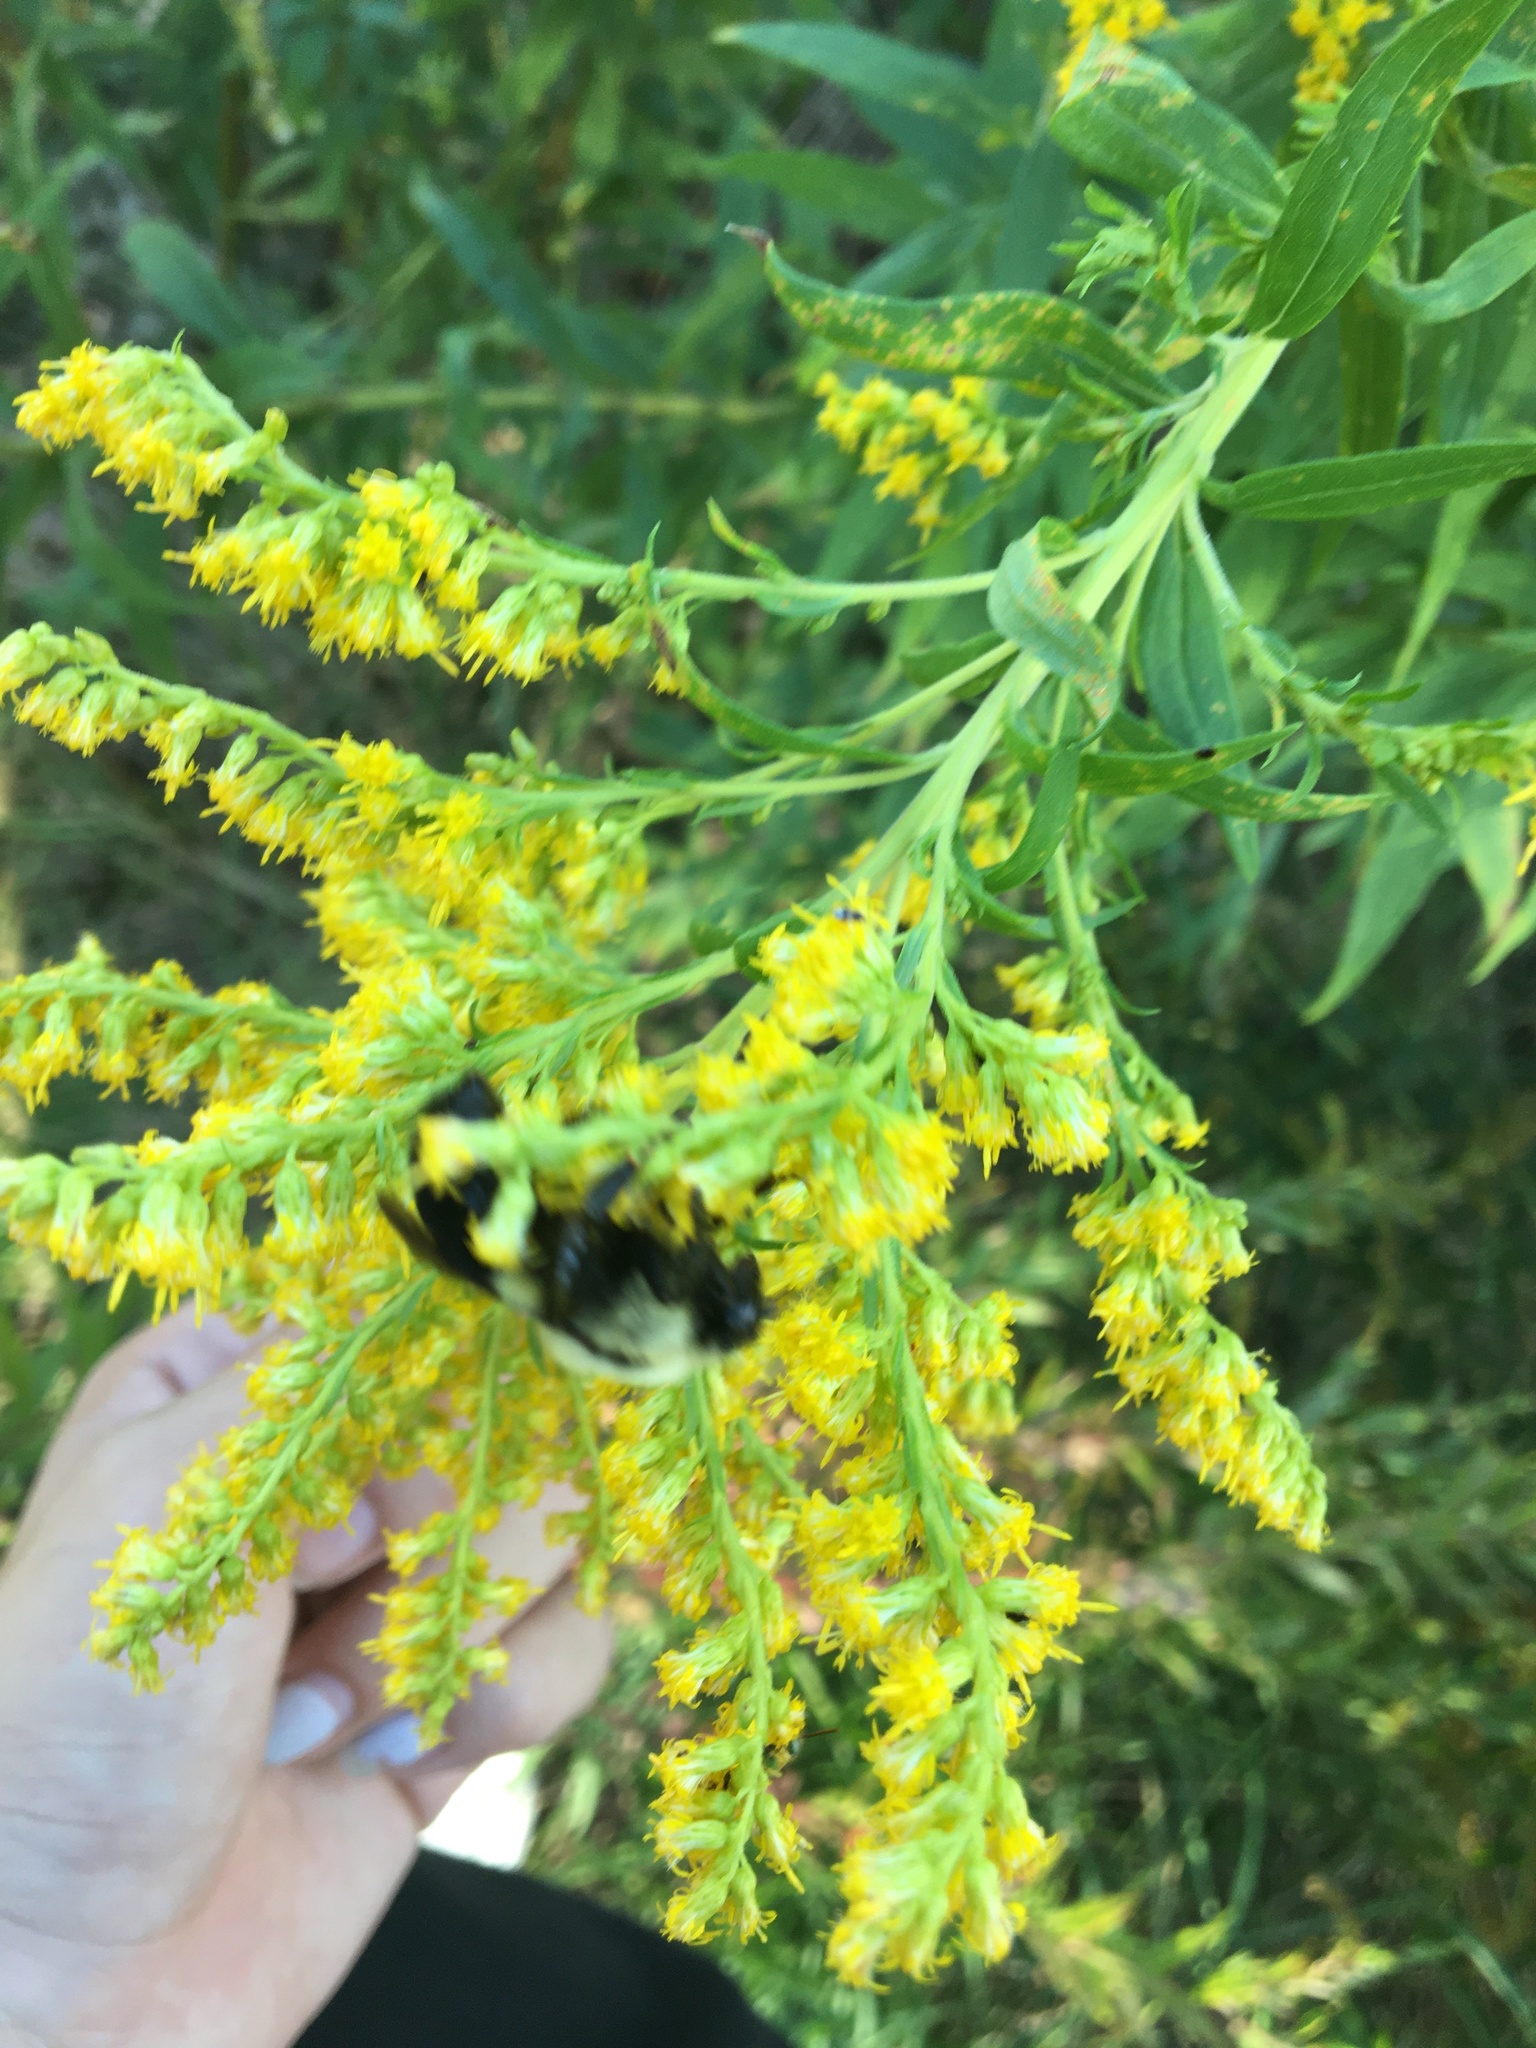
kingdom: Animalia
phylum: Arthropoda
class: Insecta
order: Hymenoptera
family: Apidae
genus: Bombus
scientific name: Bombus impatiens
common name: Common eastern bumble bee
